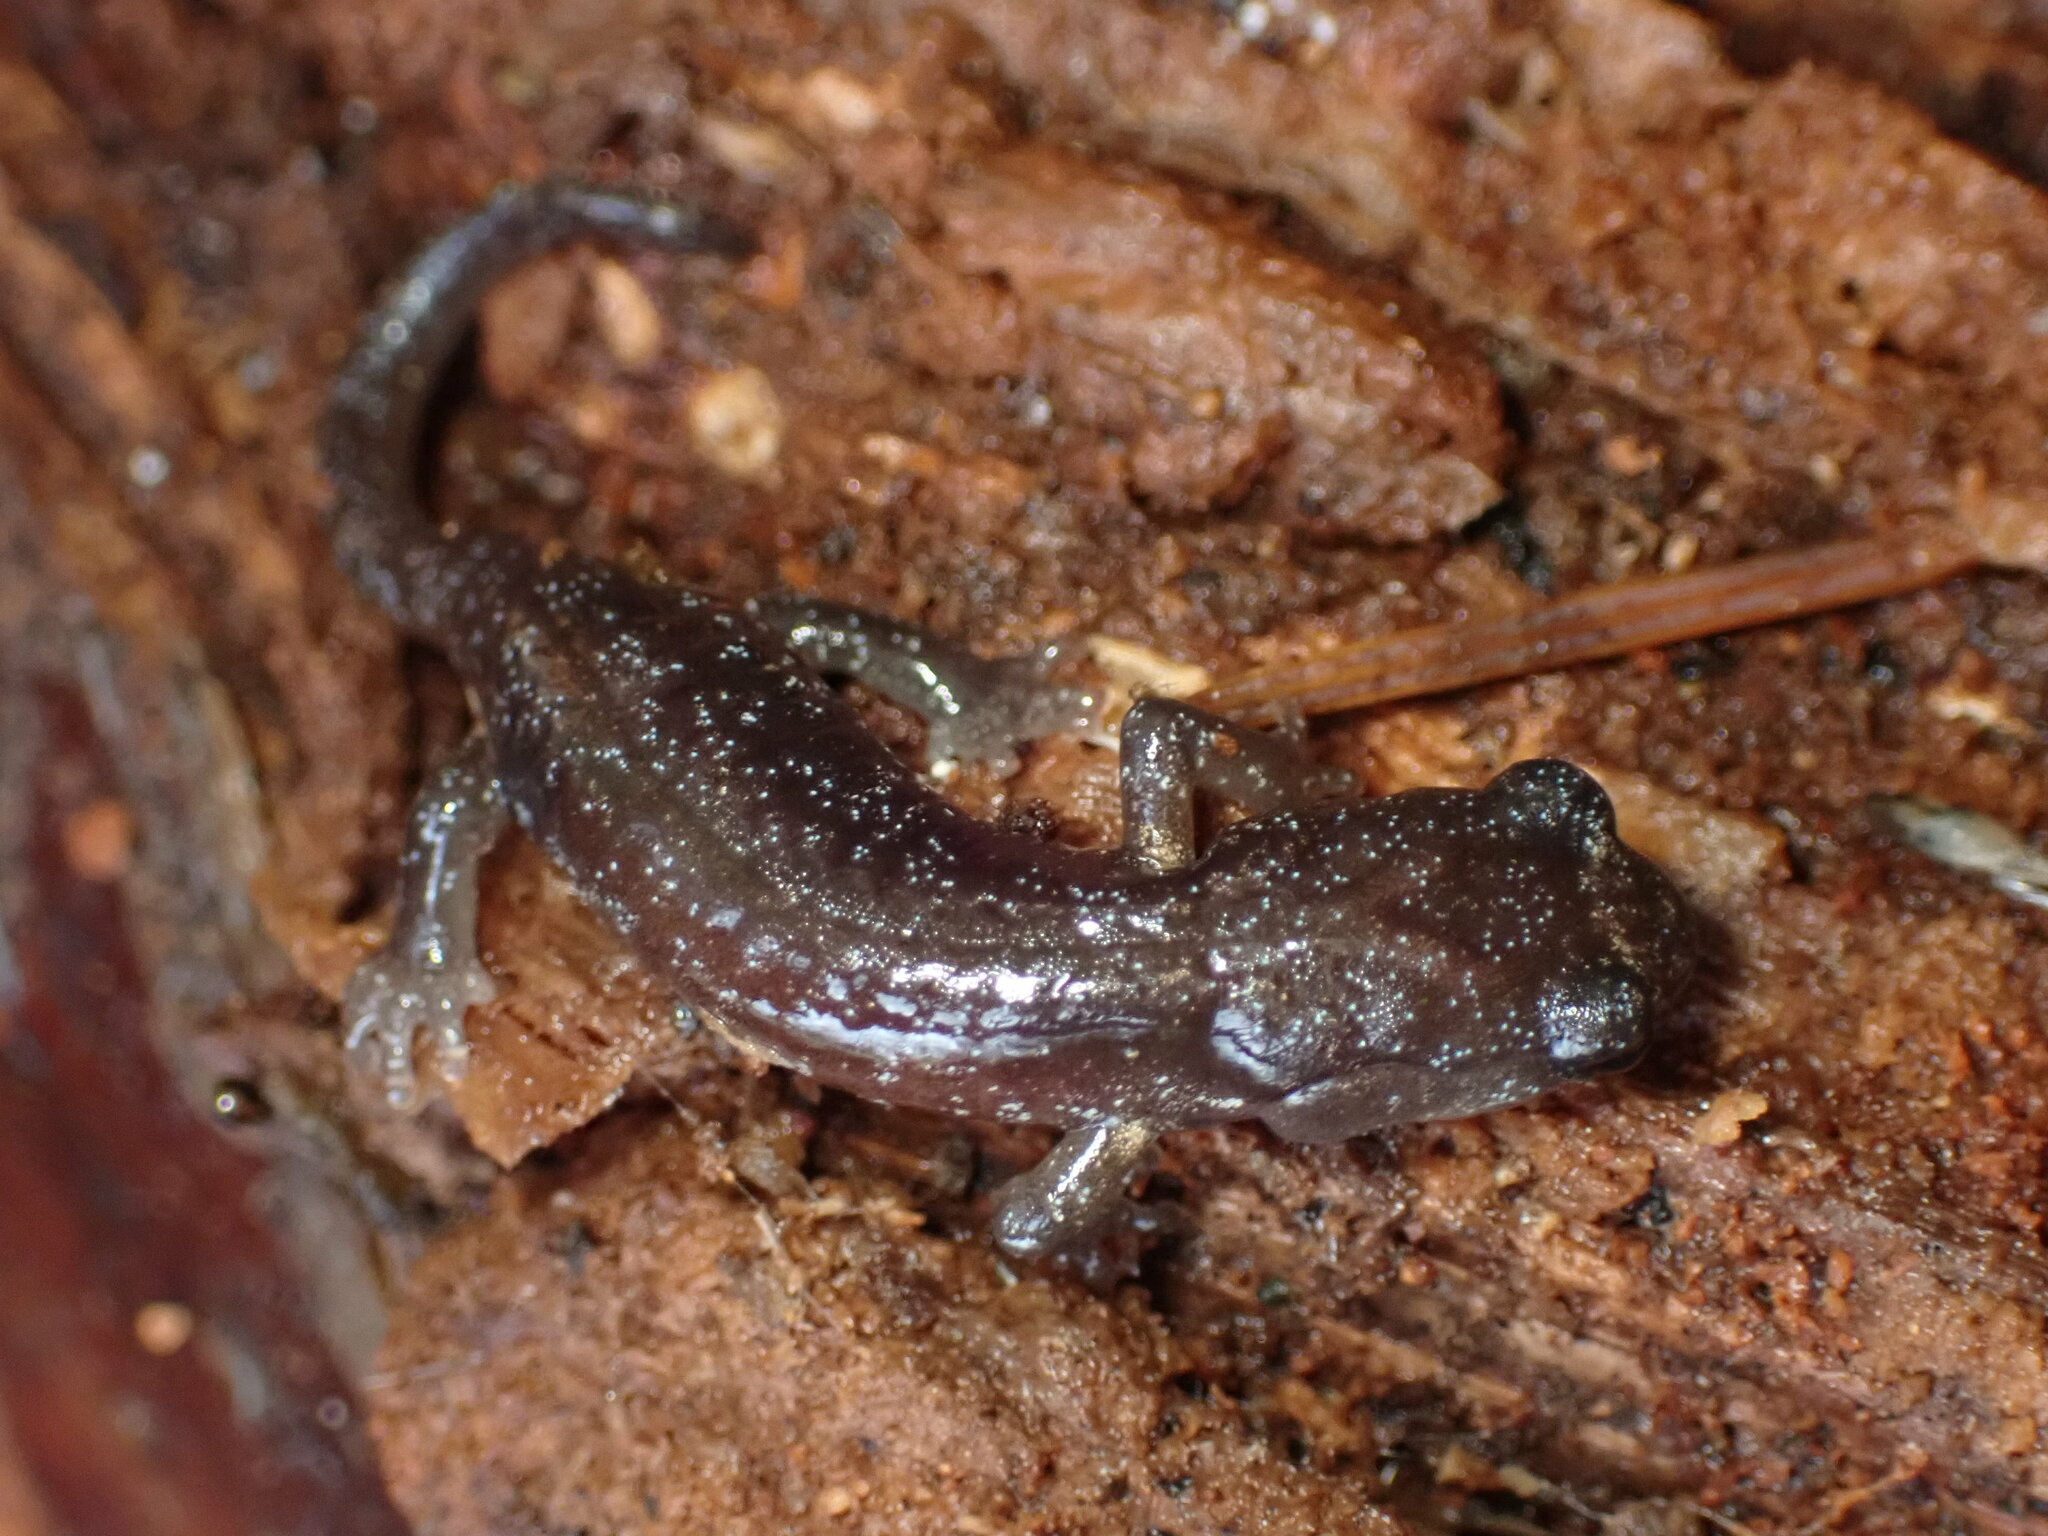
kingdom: Animalia
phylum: Chordata
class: Amphibia
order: Caudata
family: Plethodontidae
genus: Aneides
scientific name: Aneides lugubris
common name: Arboreal salamander
